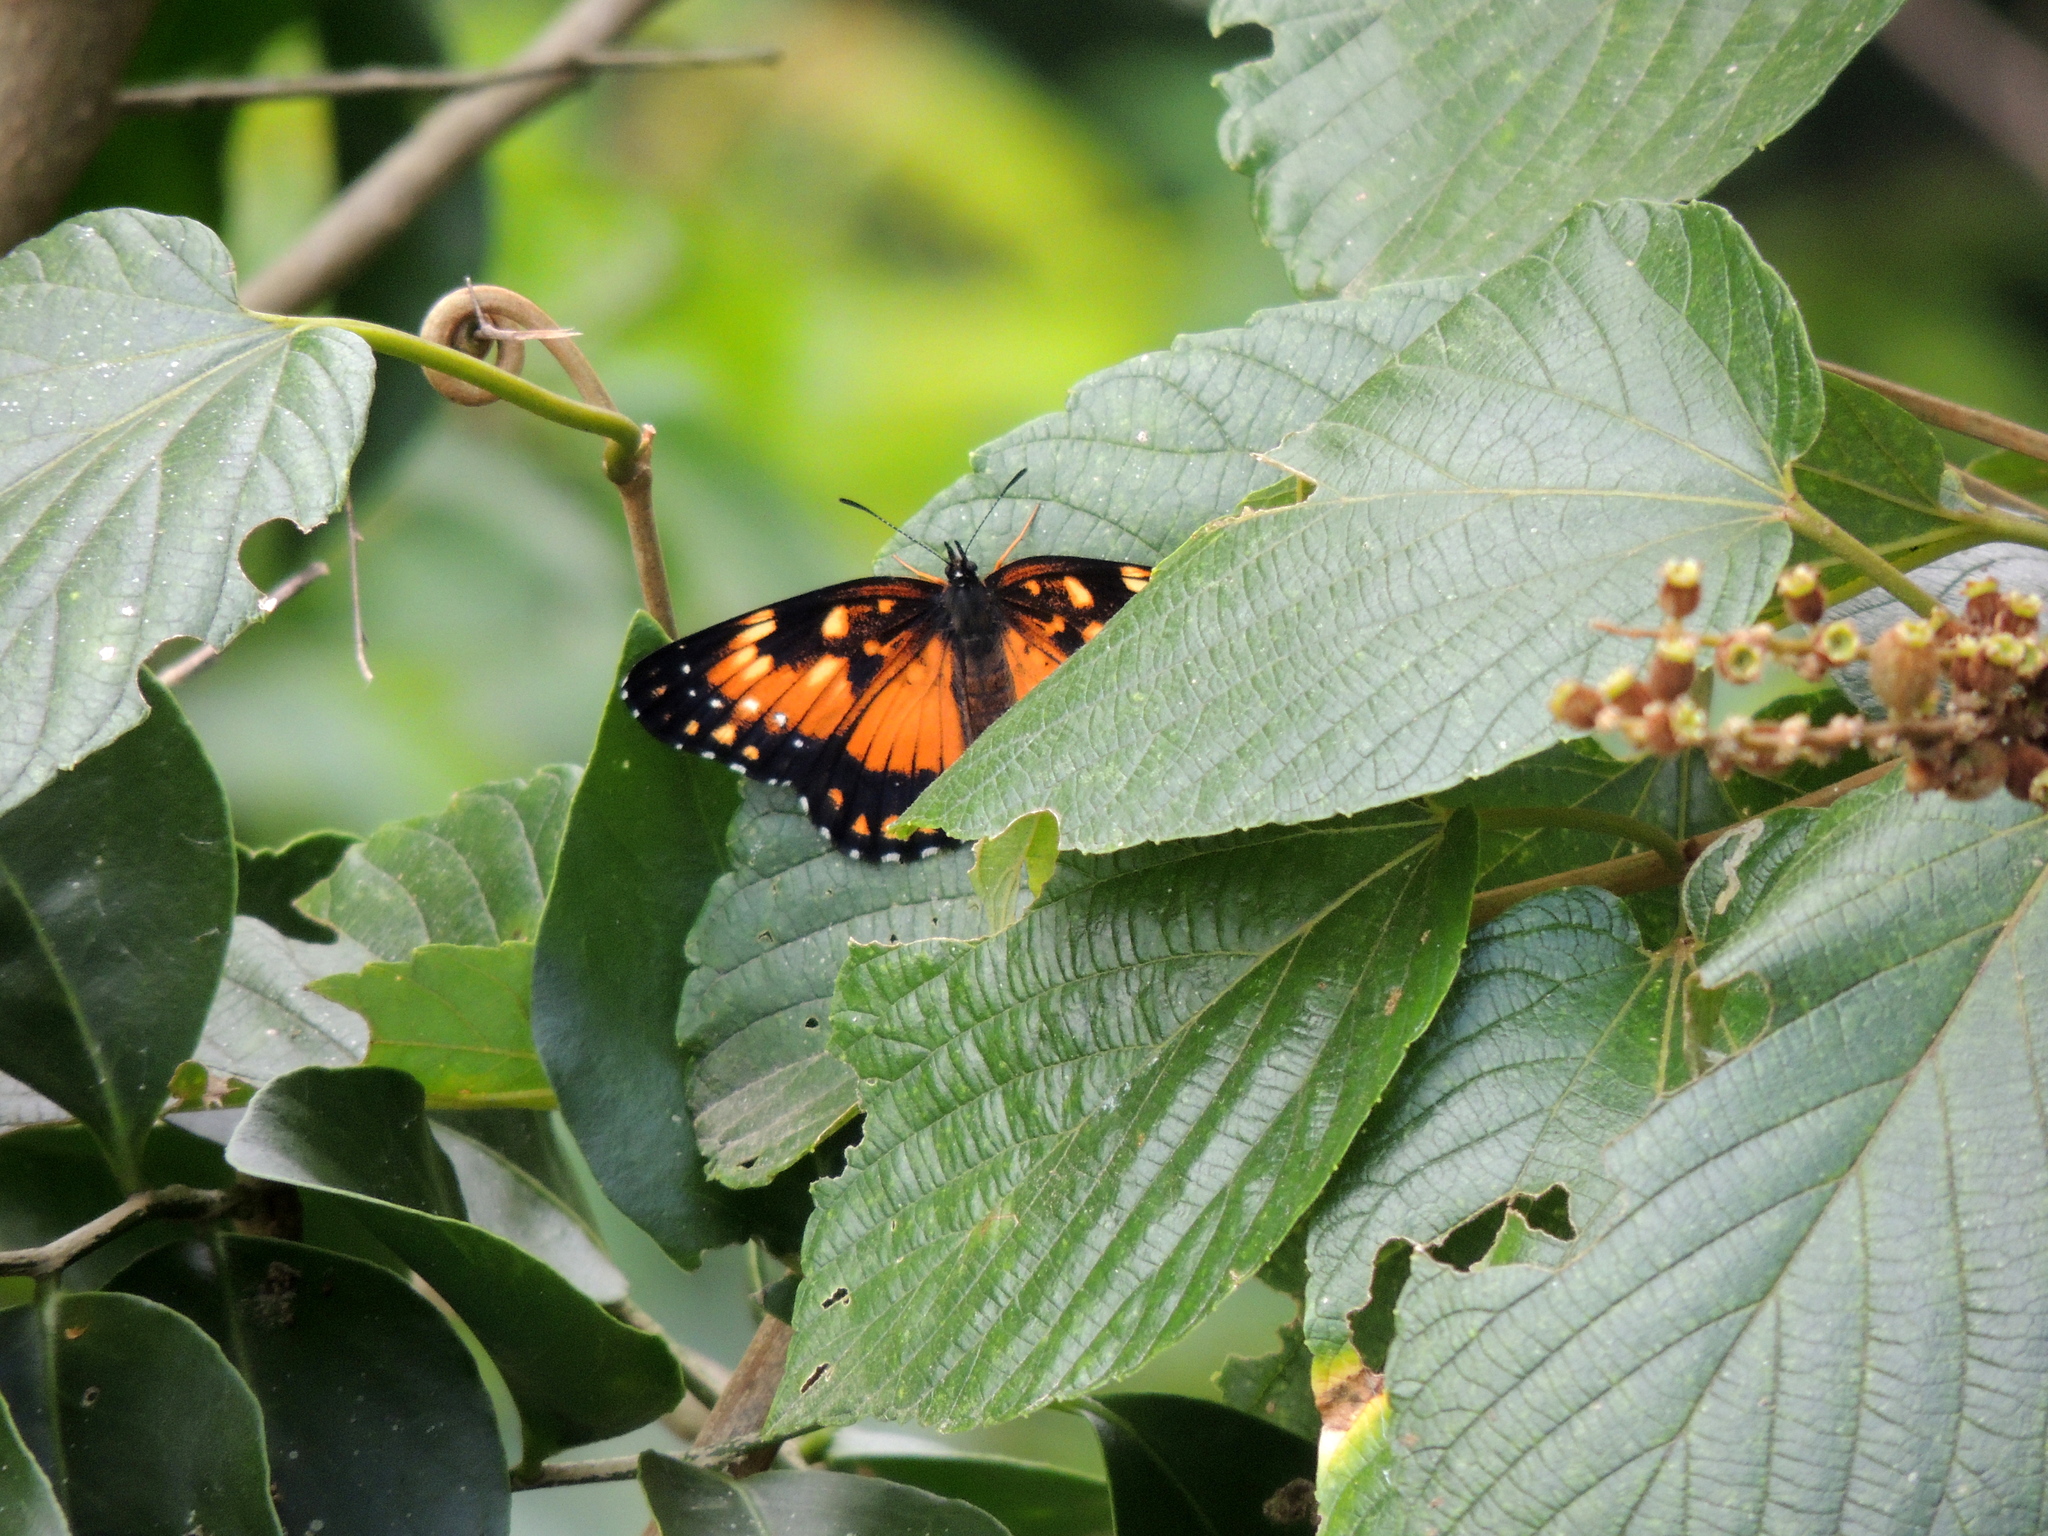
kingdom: Animalia
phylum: Arthropoda
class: Insecta
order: Lepidoptera
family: Nymphalidae
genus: Chlosyne
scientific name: Chlosyne lacinia
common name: Bordered patch
